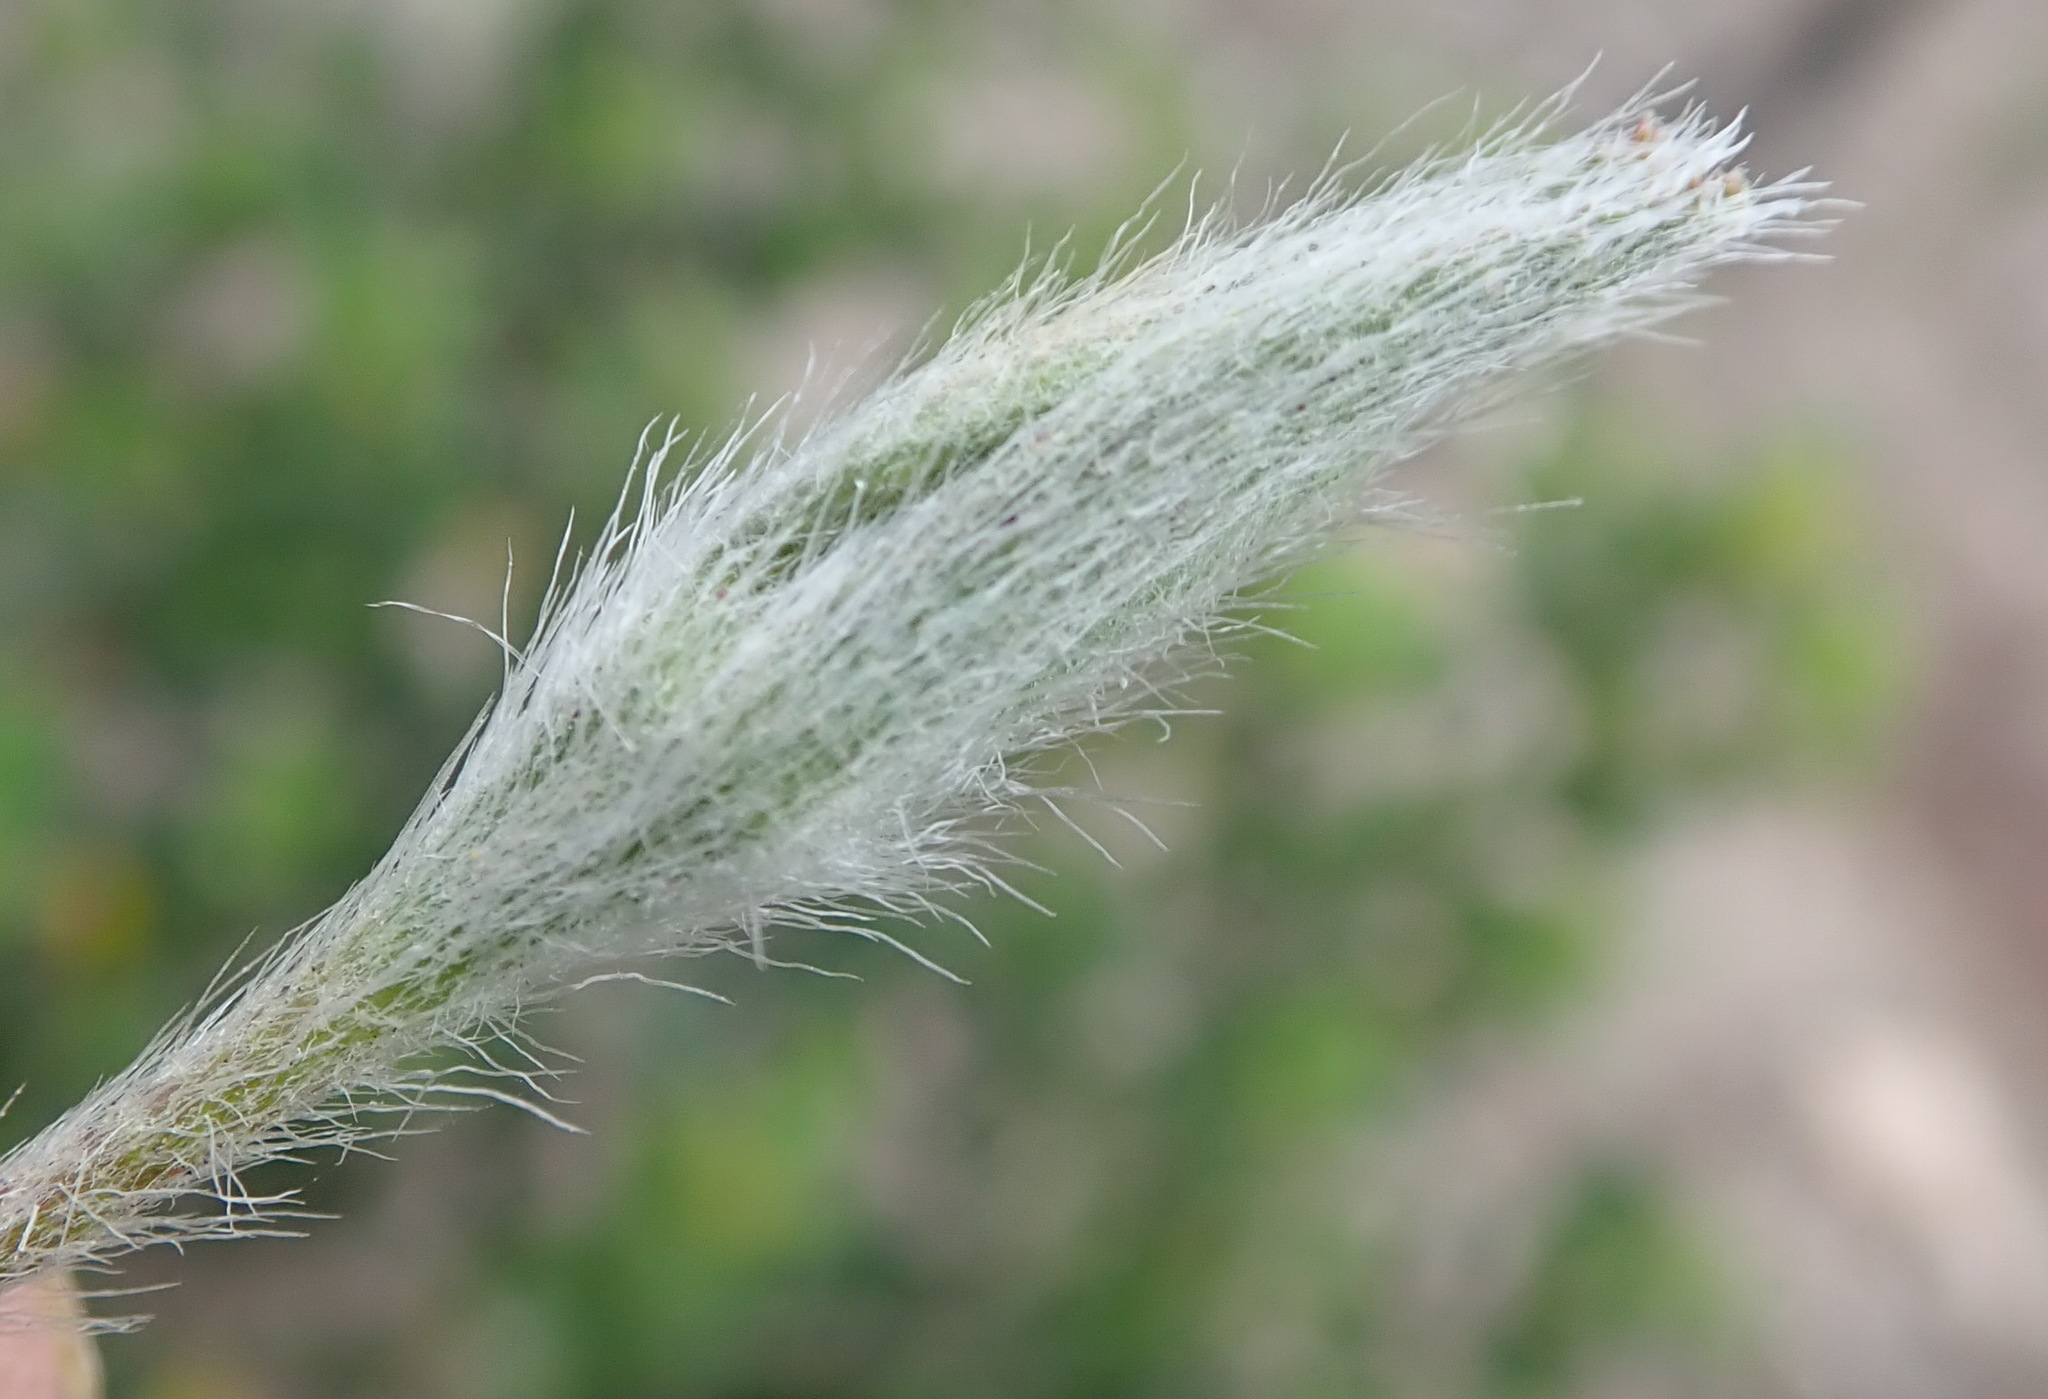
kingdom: Plantae
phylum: Tracheophyta
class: Liliopsida
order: Asparagales
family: Hypoxidaceae
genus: Hypoxis
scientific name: Hypoxis angustifolia
